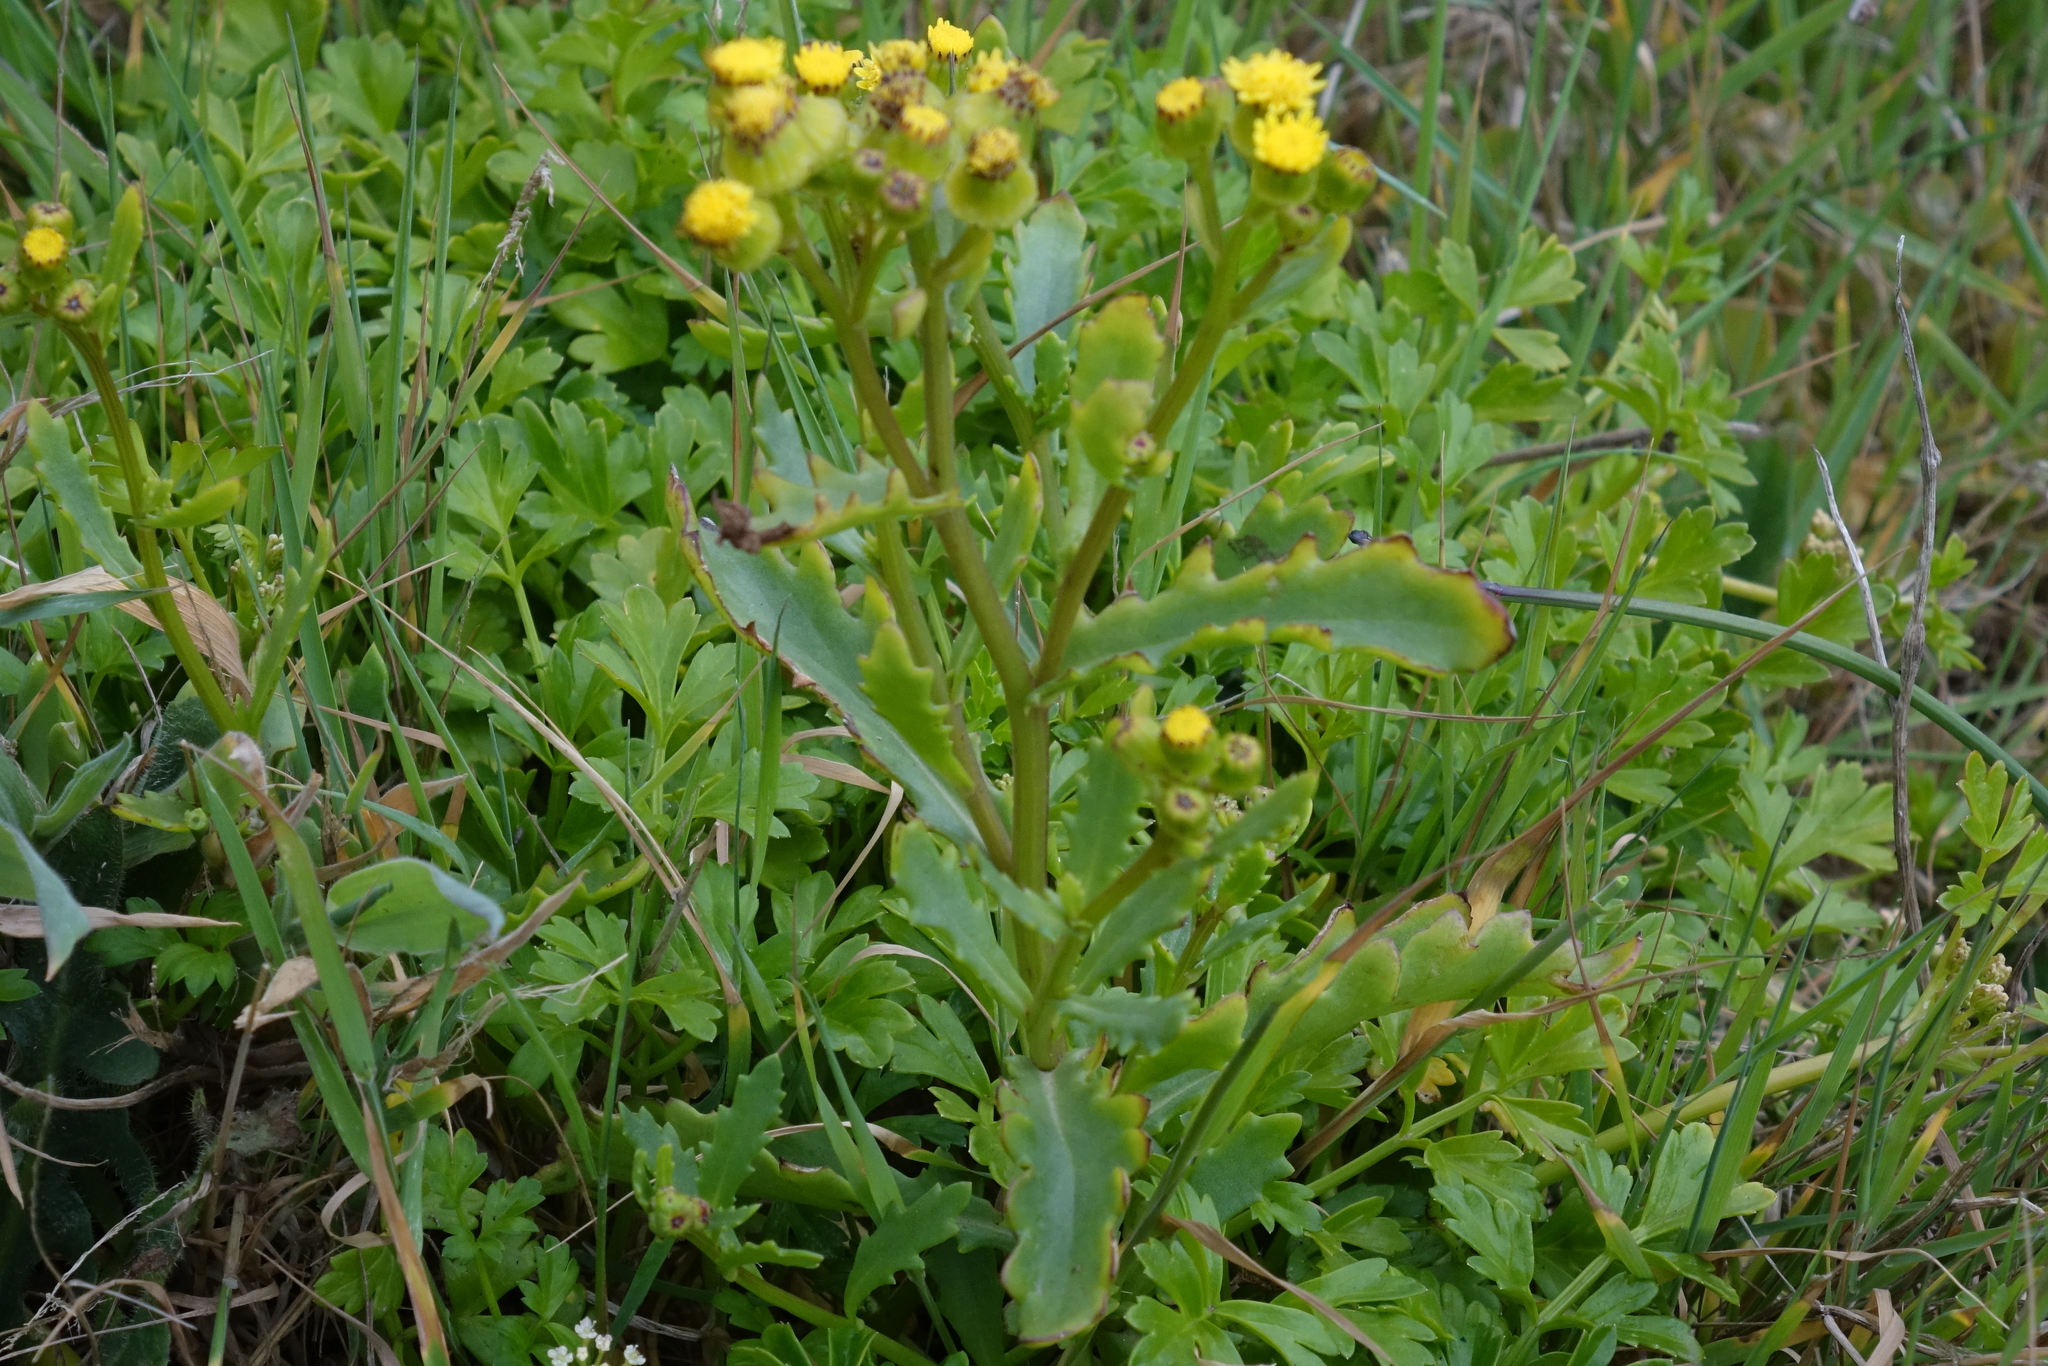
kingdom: Plantae
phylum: Tracheophyta
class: Magnoliopsida
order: Asterales
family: Asteraceae
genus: Senecio
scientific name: Senecio matatini
